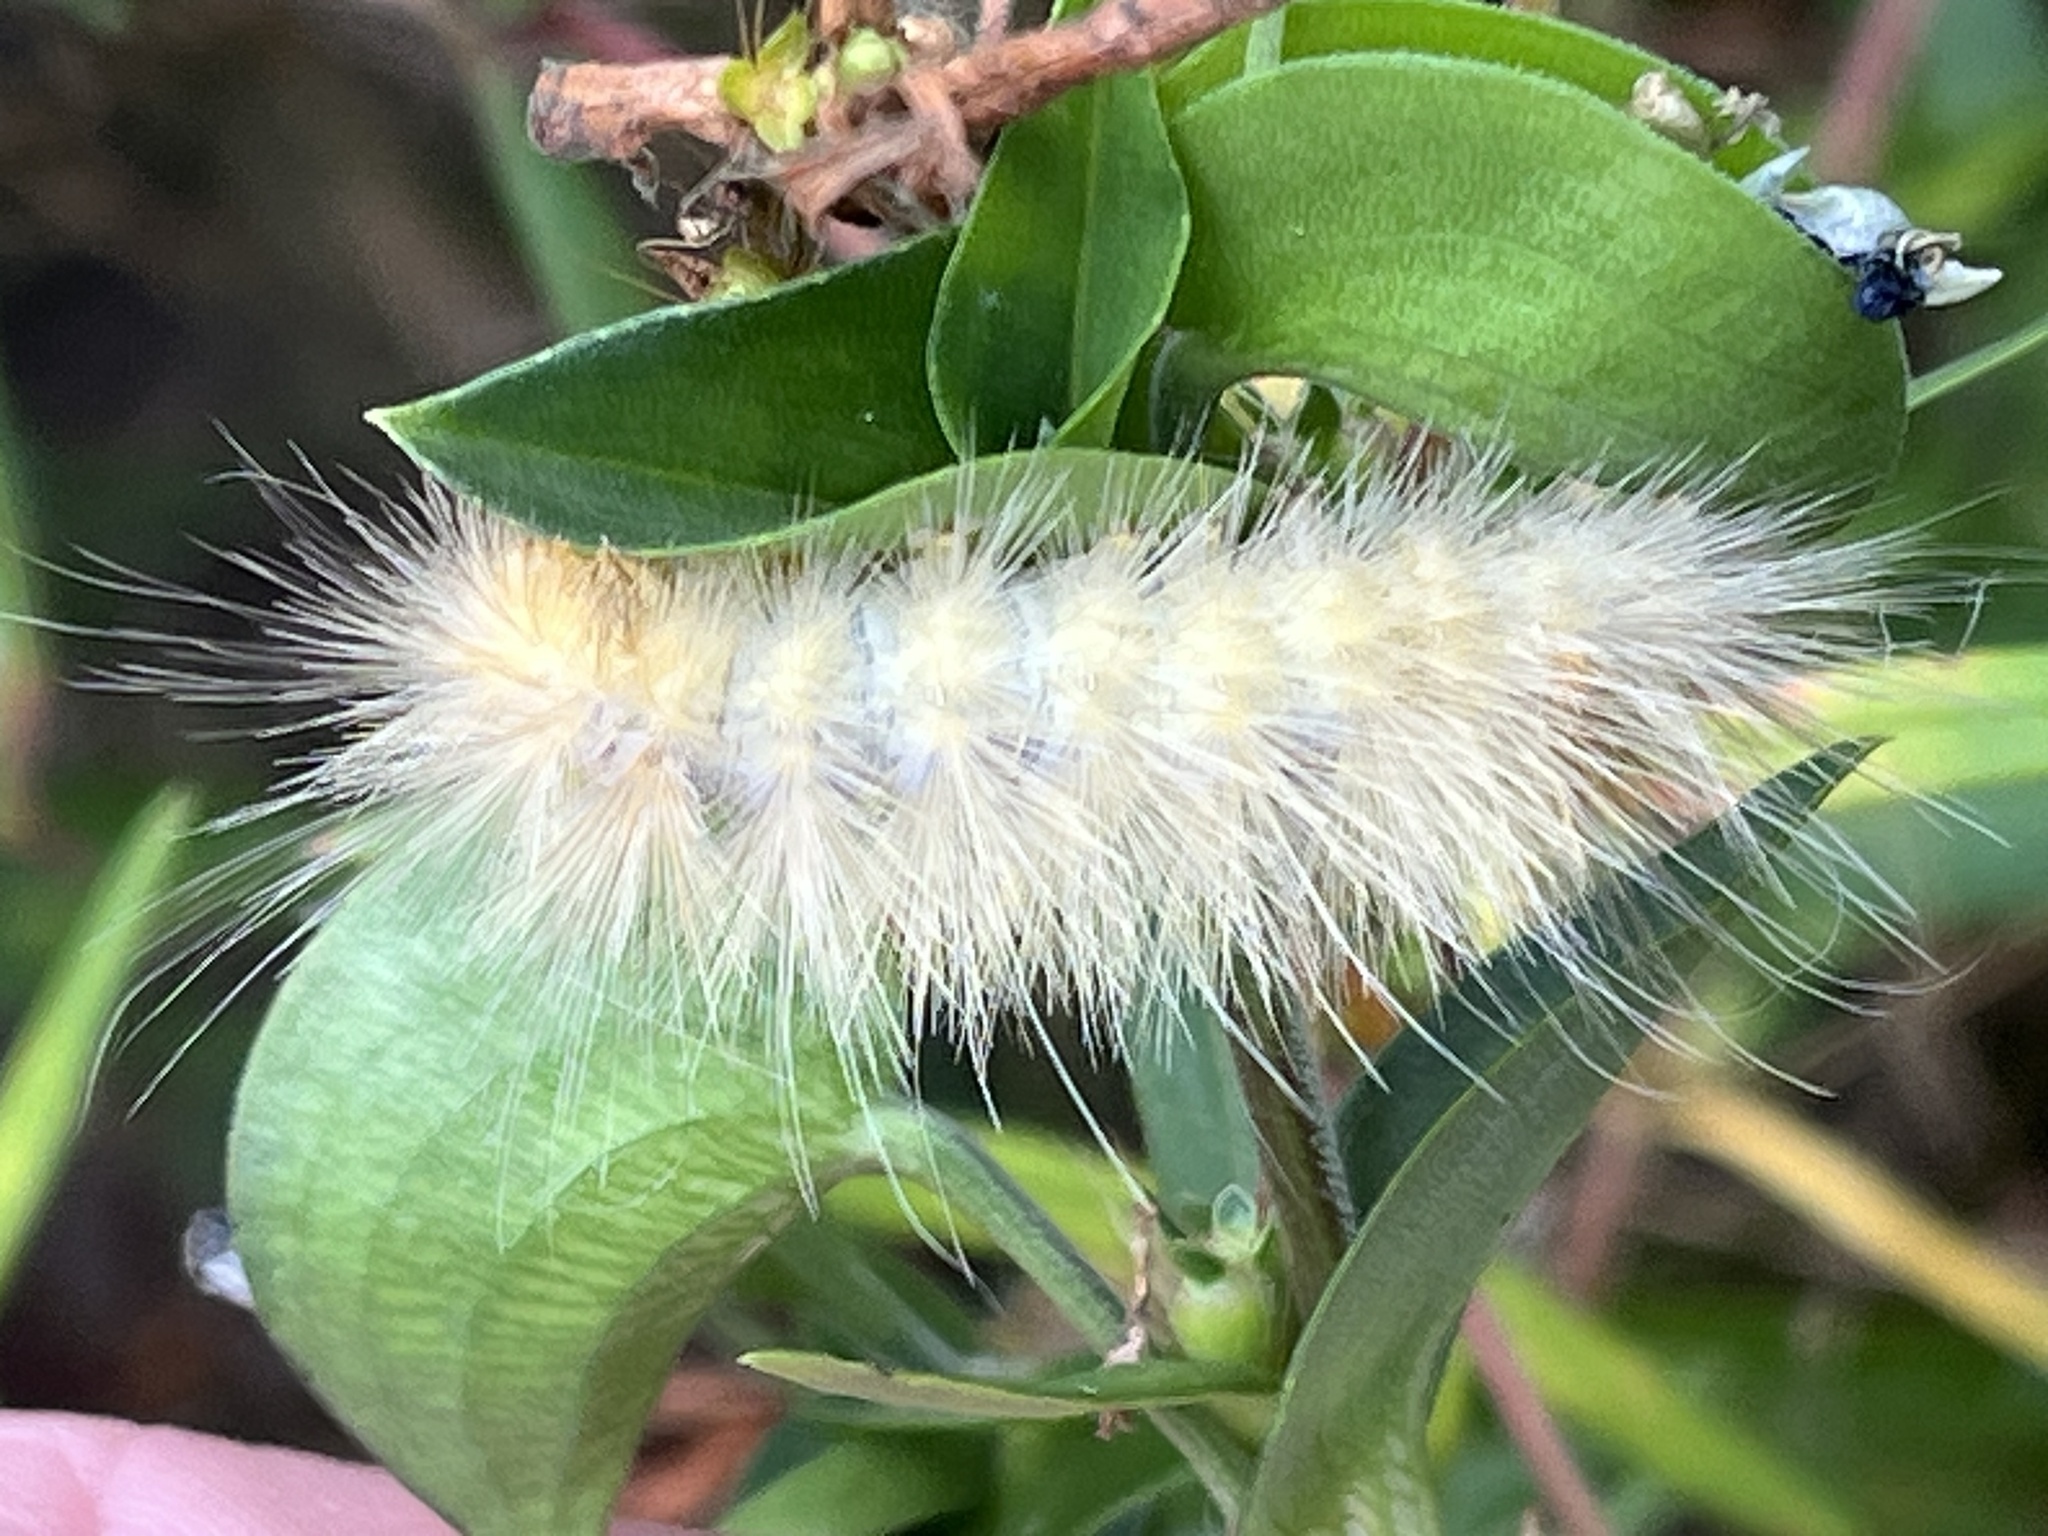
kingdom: Animalia
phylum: Arthropoda
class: Insecta
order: Lepidoptera
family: Erebidae
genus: Spilosoma
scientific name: Spilosoma virginica
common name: Virginia tiger moth
